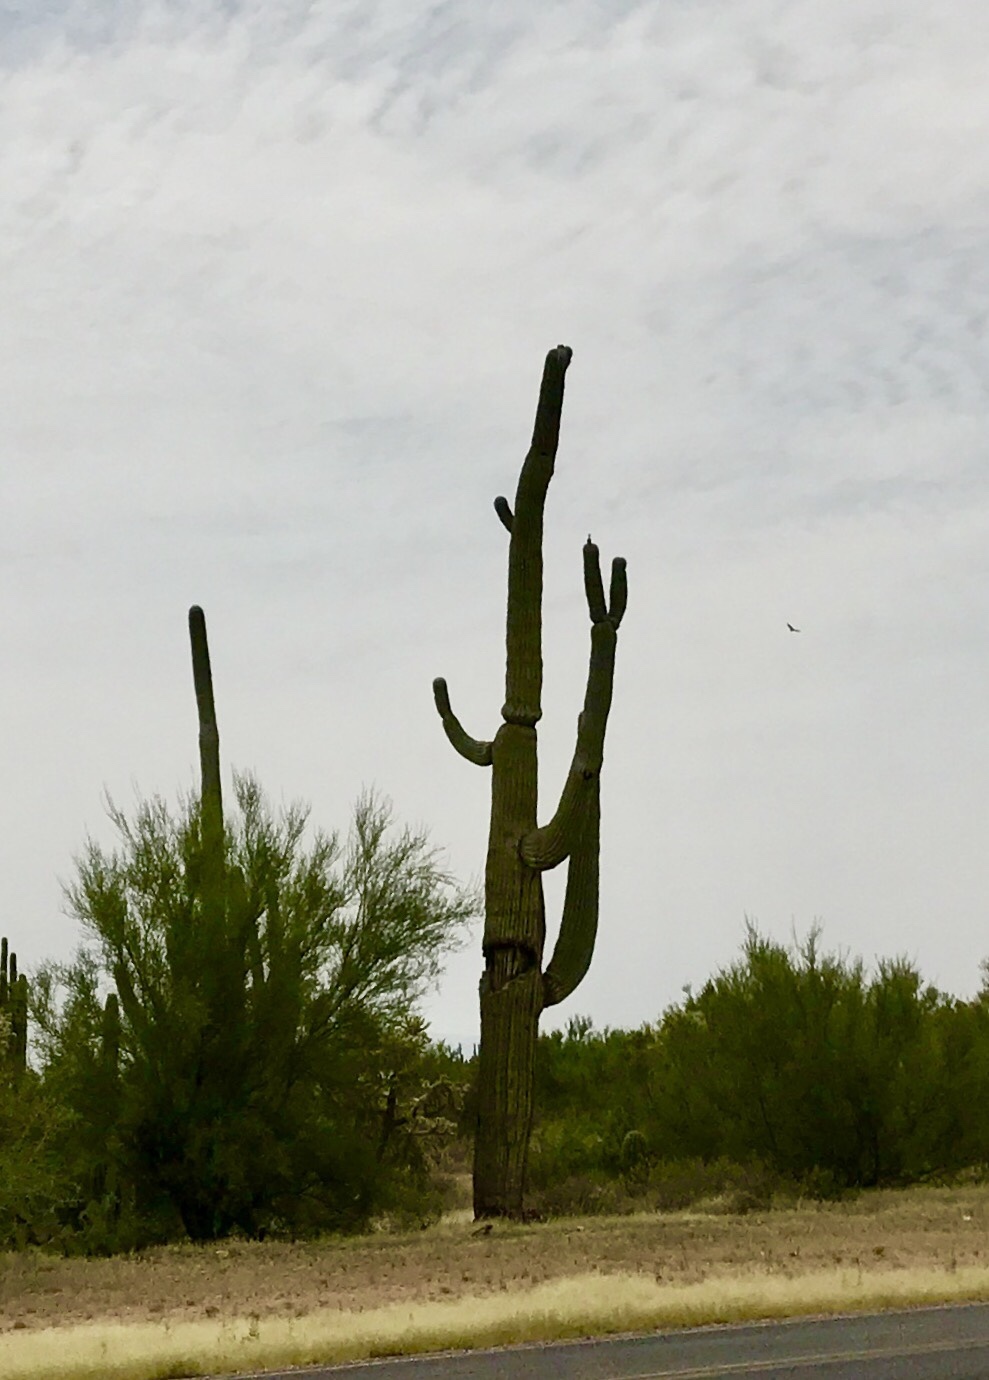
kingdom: Plantae
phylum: Tracheophyta
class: Magnoliopsida
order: Caryophyllales
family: Cactaceae
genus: Carnegiea
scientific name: Carnegiea gigantea
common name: Saguaro
